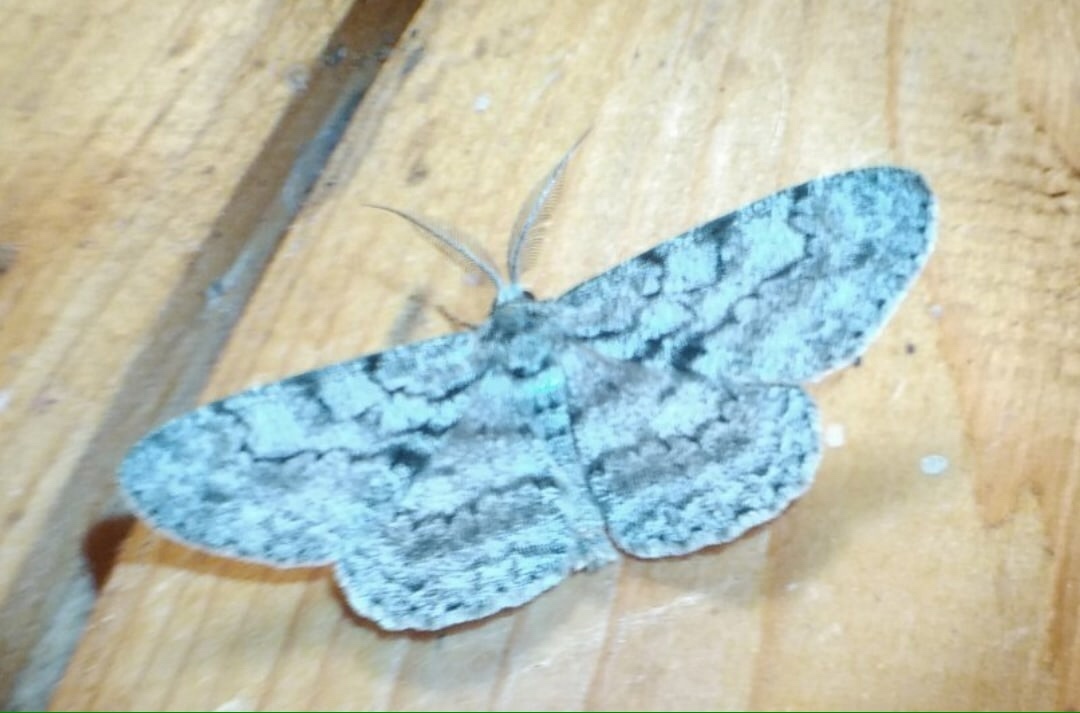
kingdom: Animalia
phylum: Arthropoda
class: Insecta
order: Lepidoptera
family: Geometridae
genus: Hypomecis
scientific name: Hypomecis roboraria
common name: Great oak beauty
